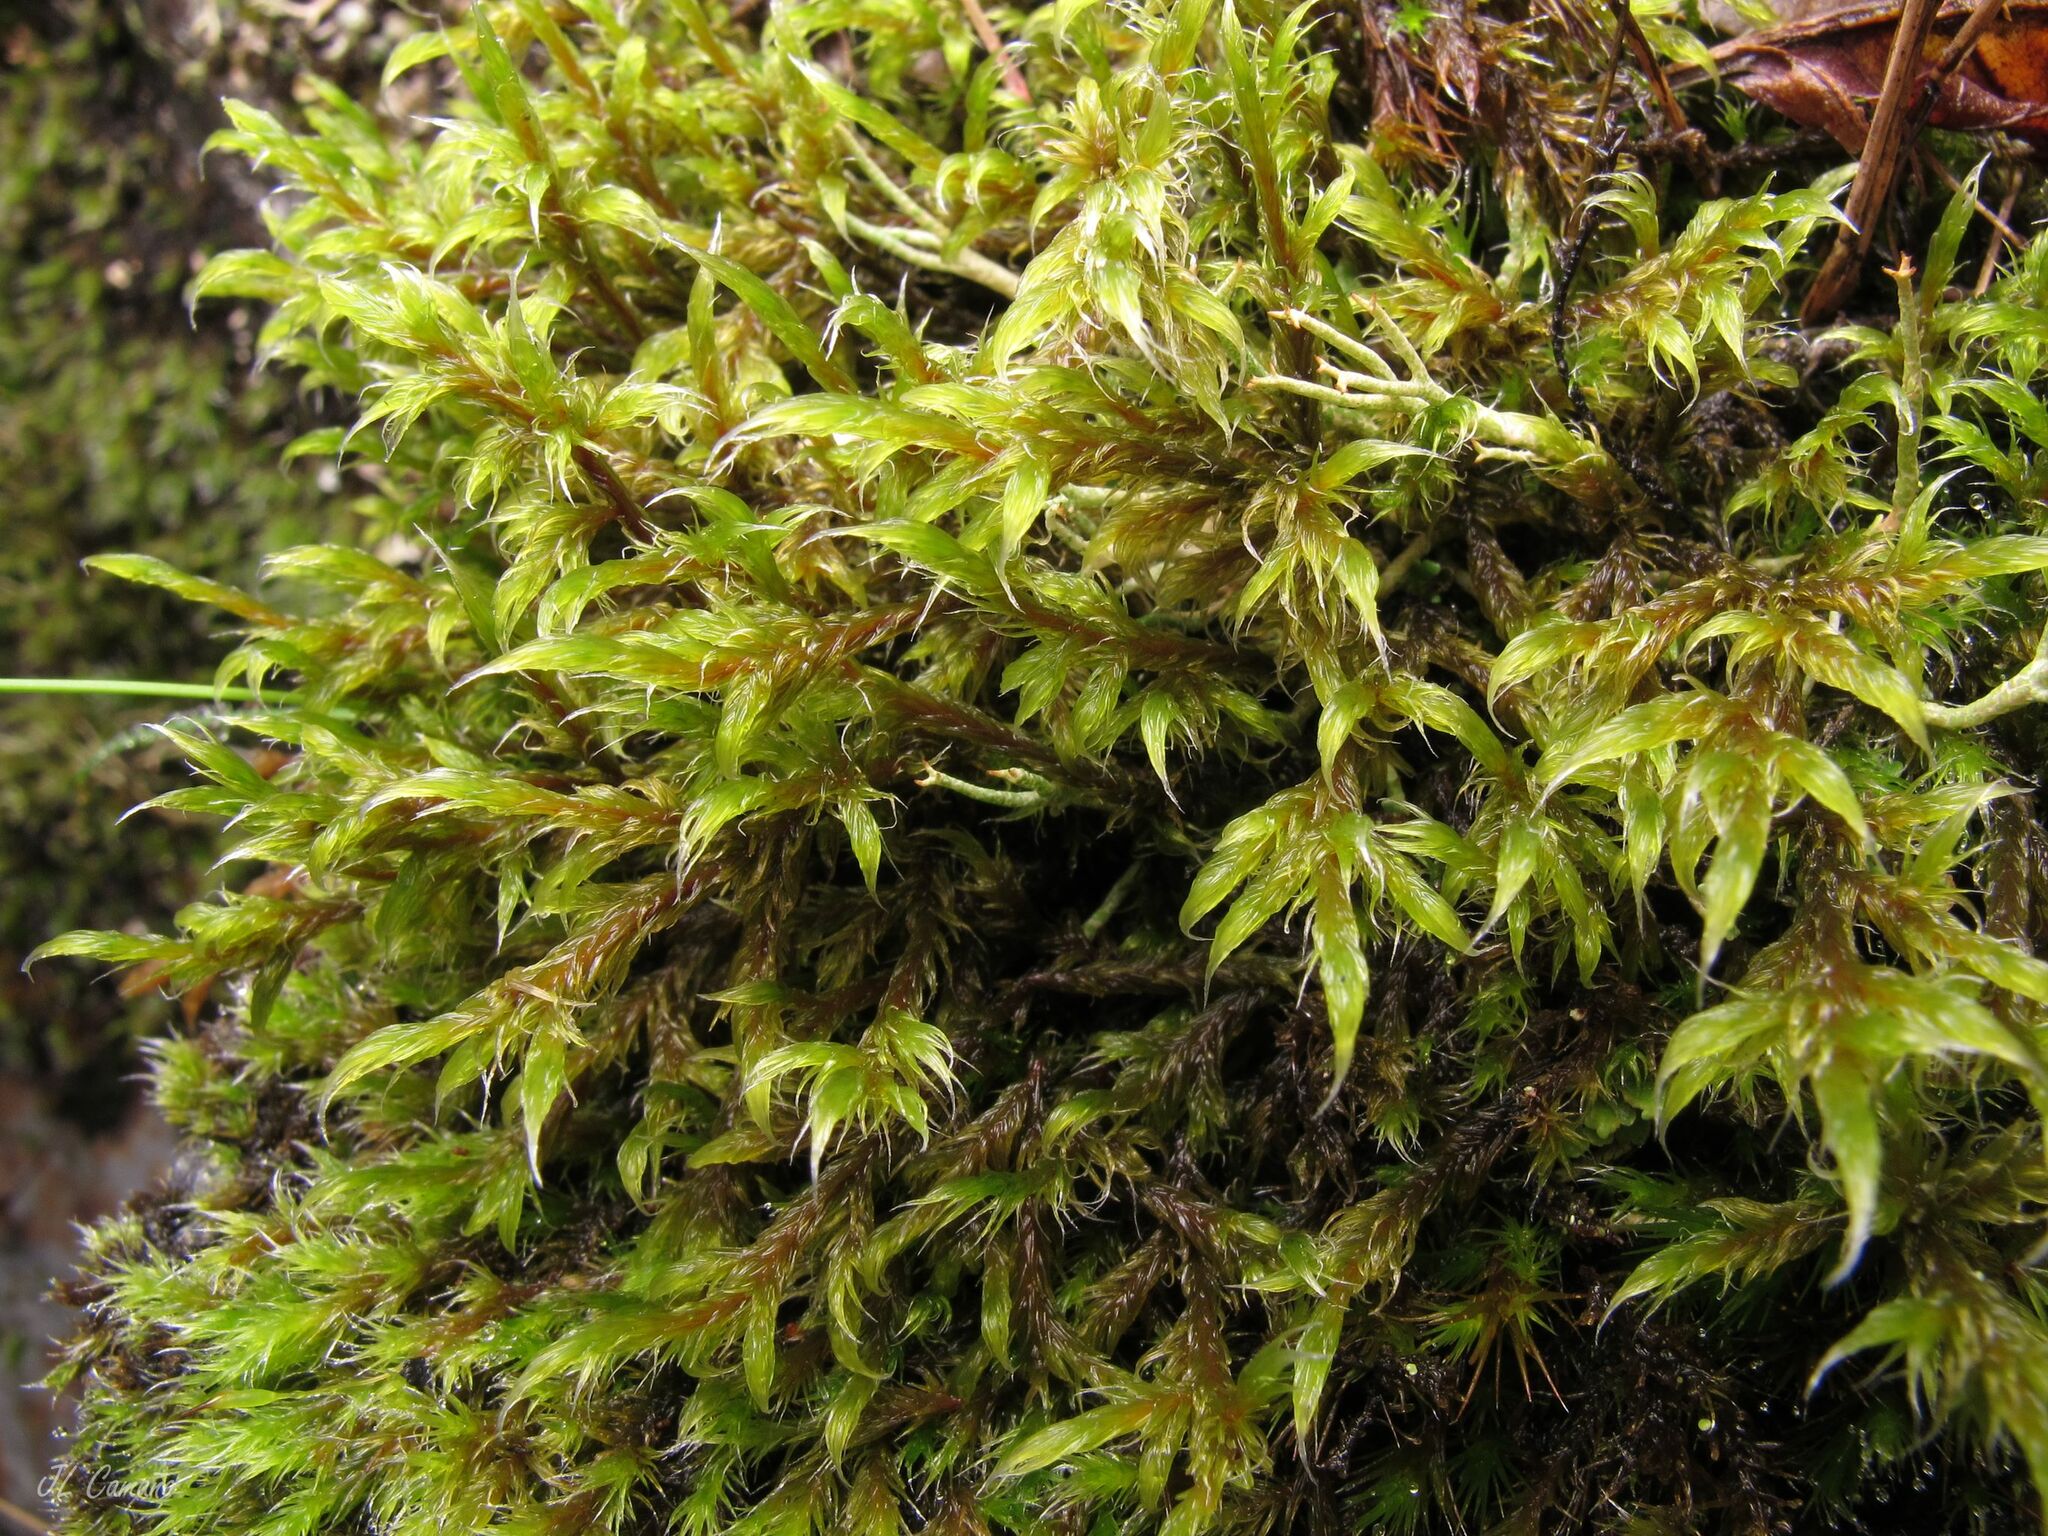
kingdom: Plantae
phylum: Bryophyta
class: Bryopsida
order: Grimmiales
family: Grimmiaceae
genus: Racomitrium
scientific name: Racomitrium lanuginosum
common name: Hoary rock moss
